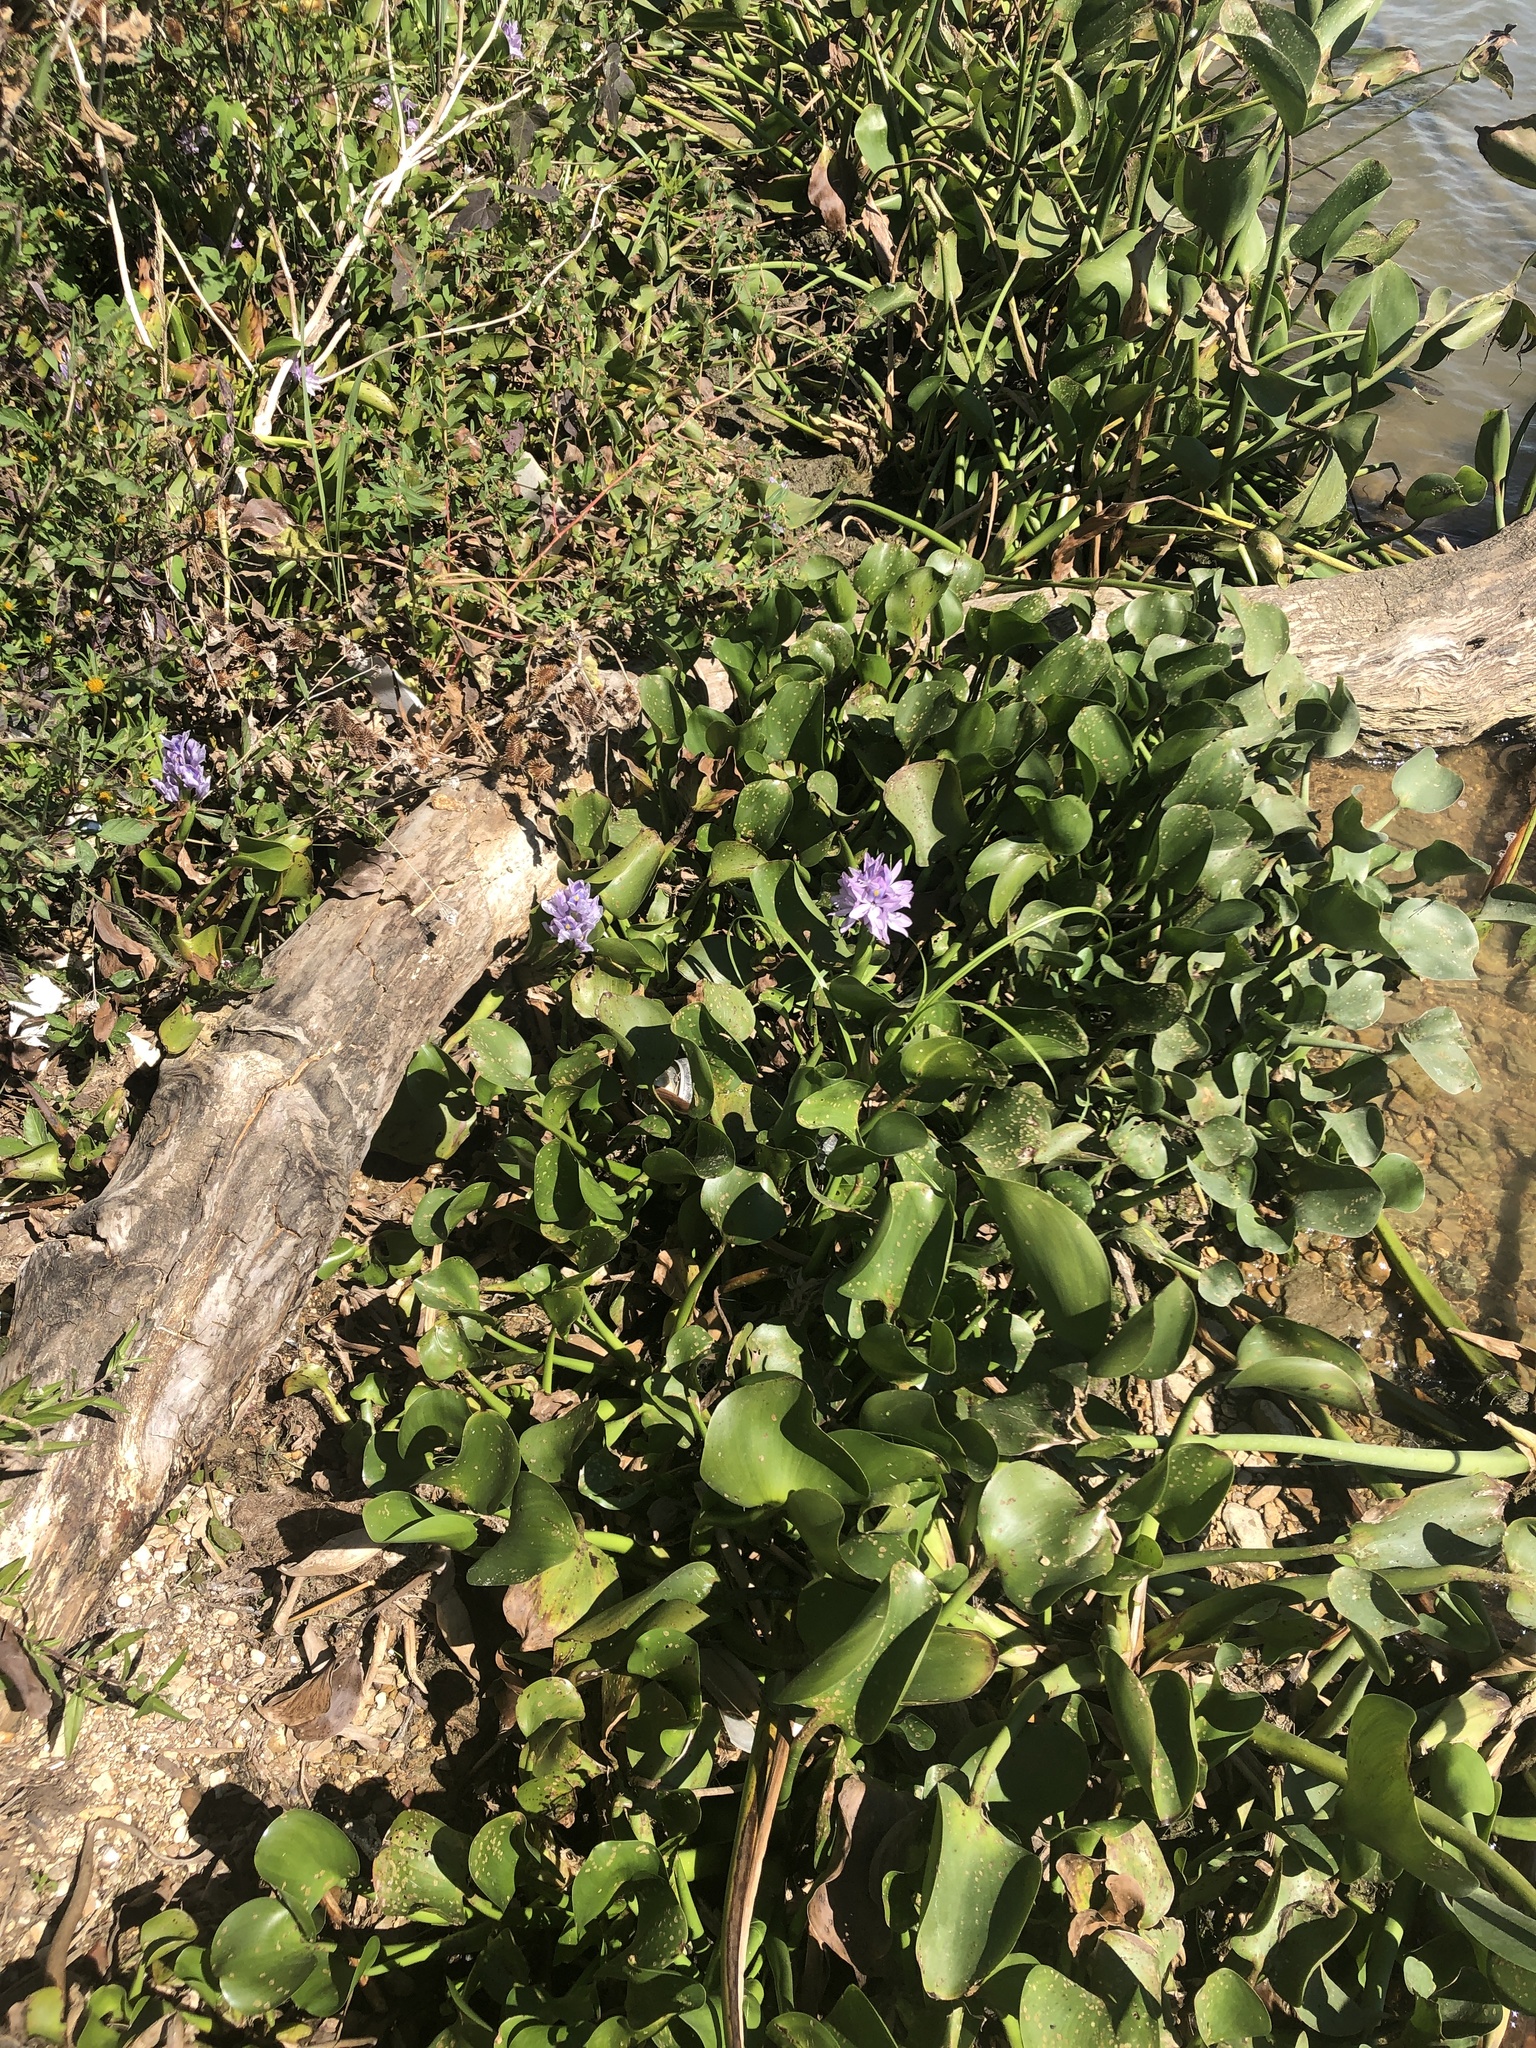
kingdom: Plantae
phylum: Tracheophyta
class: Liliopsida
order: Commelinales
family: Pontederiaceae
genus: Pontederia
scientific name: Pontederia crassipes
